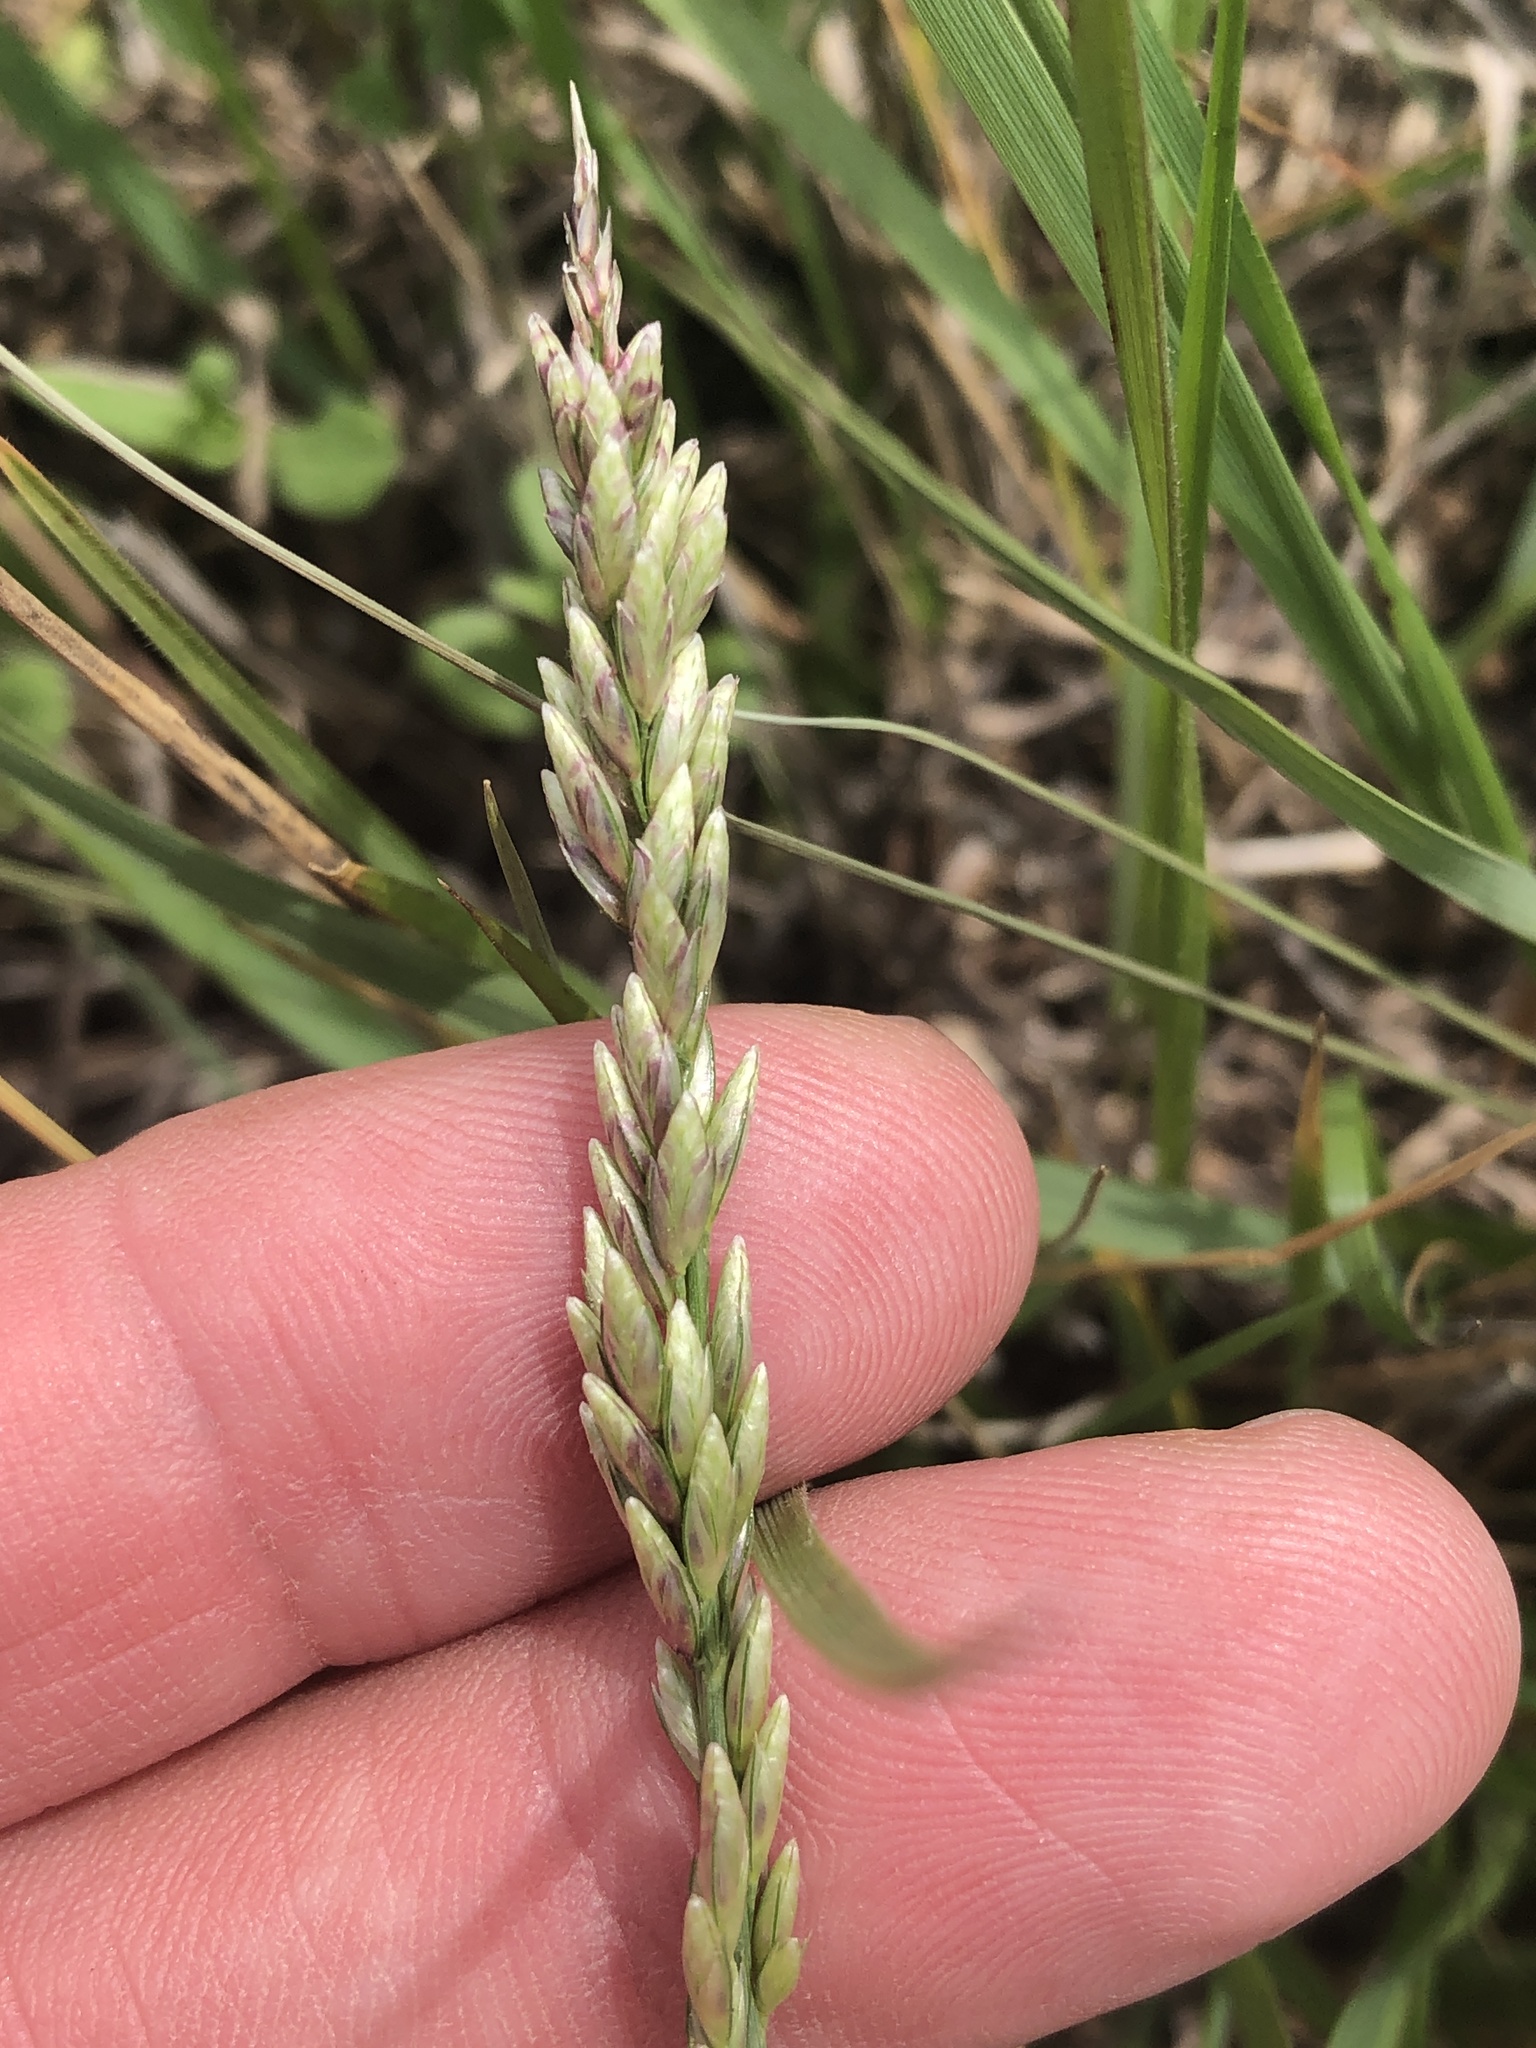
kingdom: Plantae
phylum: Tracheophyta
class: Liliopsida
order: Poales
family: Poaceae
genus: Tridens
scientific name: Tridens albescens
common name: White tridens
